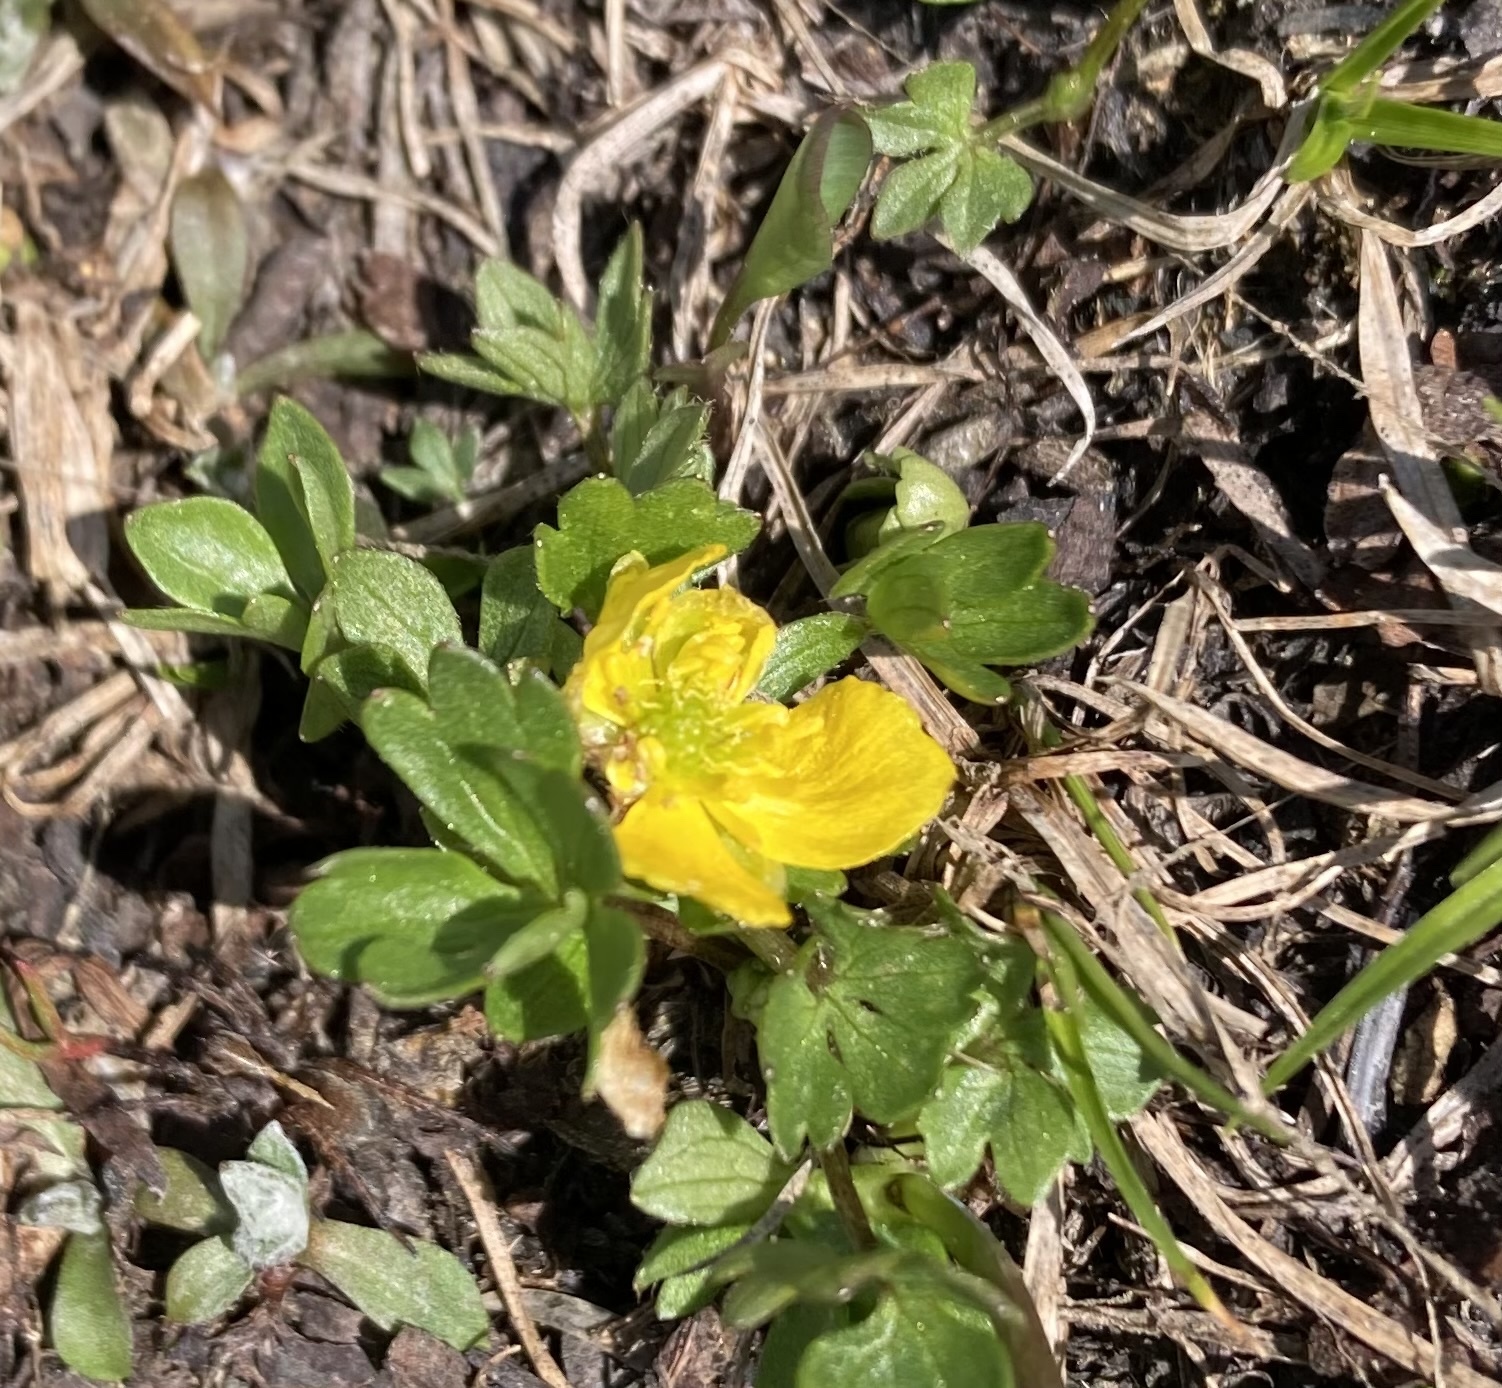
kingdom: Plantae
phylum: Tracheophyta
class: Magnoliopsida
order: Ranunculales
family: Ranunculaceae
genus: Ranunculus
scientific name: Ranunculus eschscholtzii
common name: Eschscholtz's buttercup
